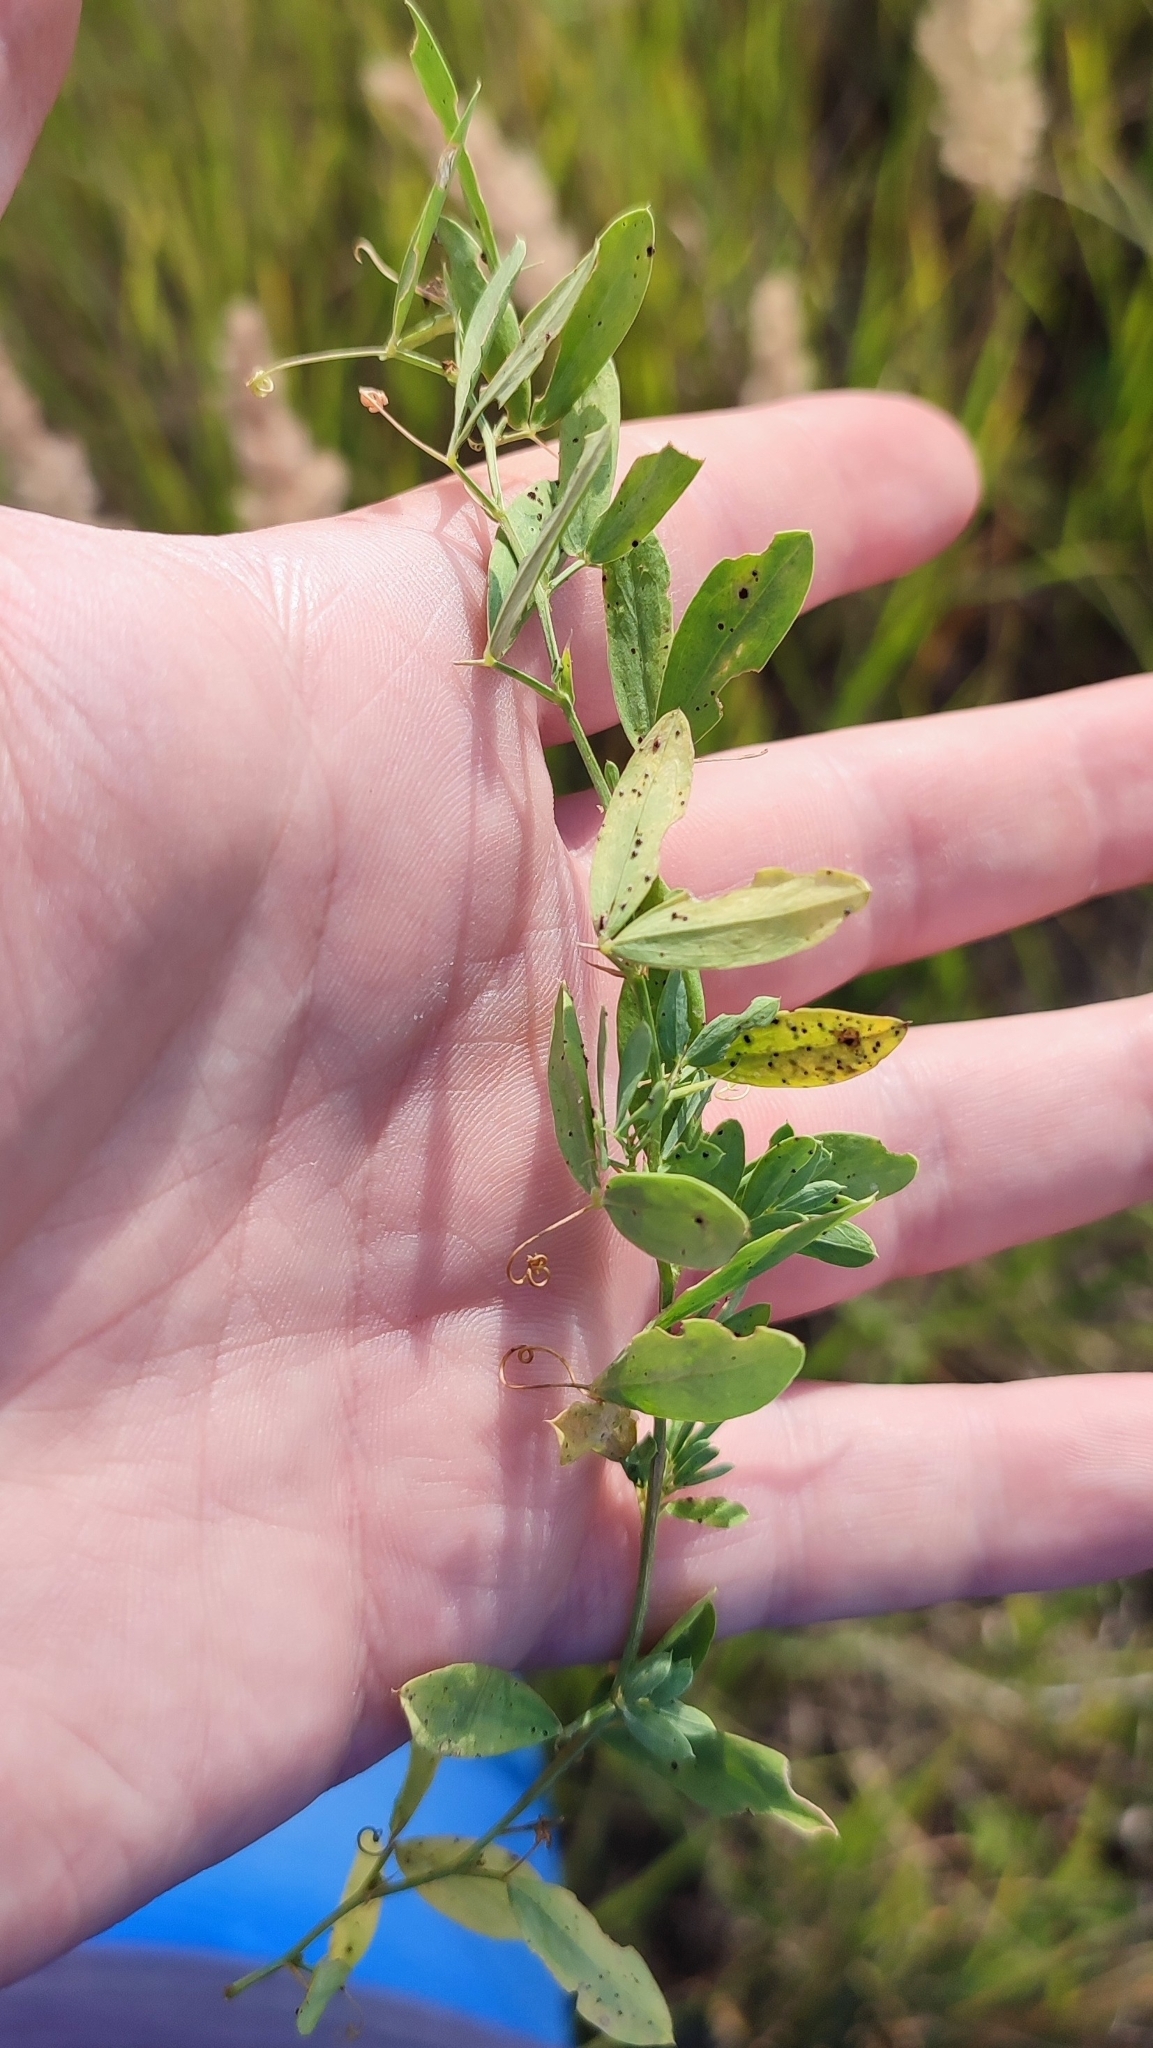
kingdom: Plantae
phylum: Tracheophyta
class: Magnoliopsida
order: Fabales
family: Fabaceae
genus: Lathyrus
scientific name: Lathyrus tuberosus
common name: Tuberous pea
